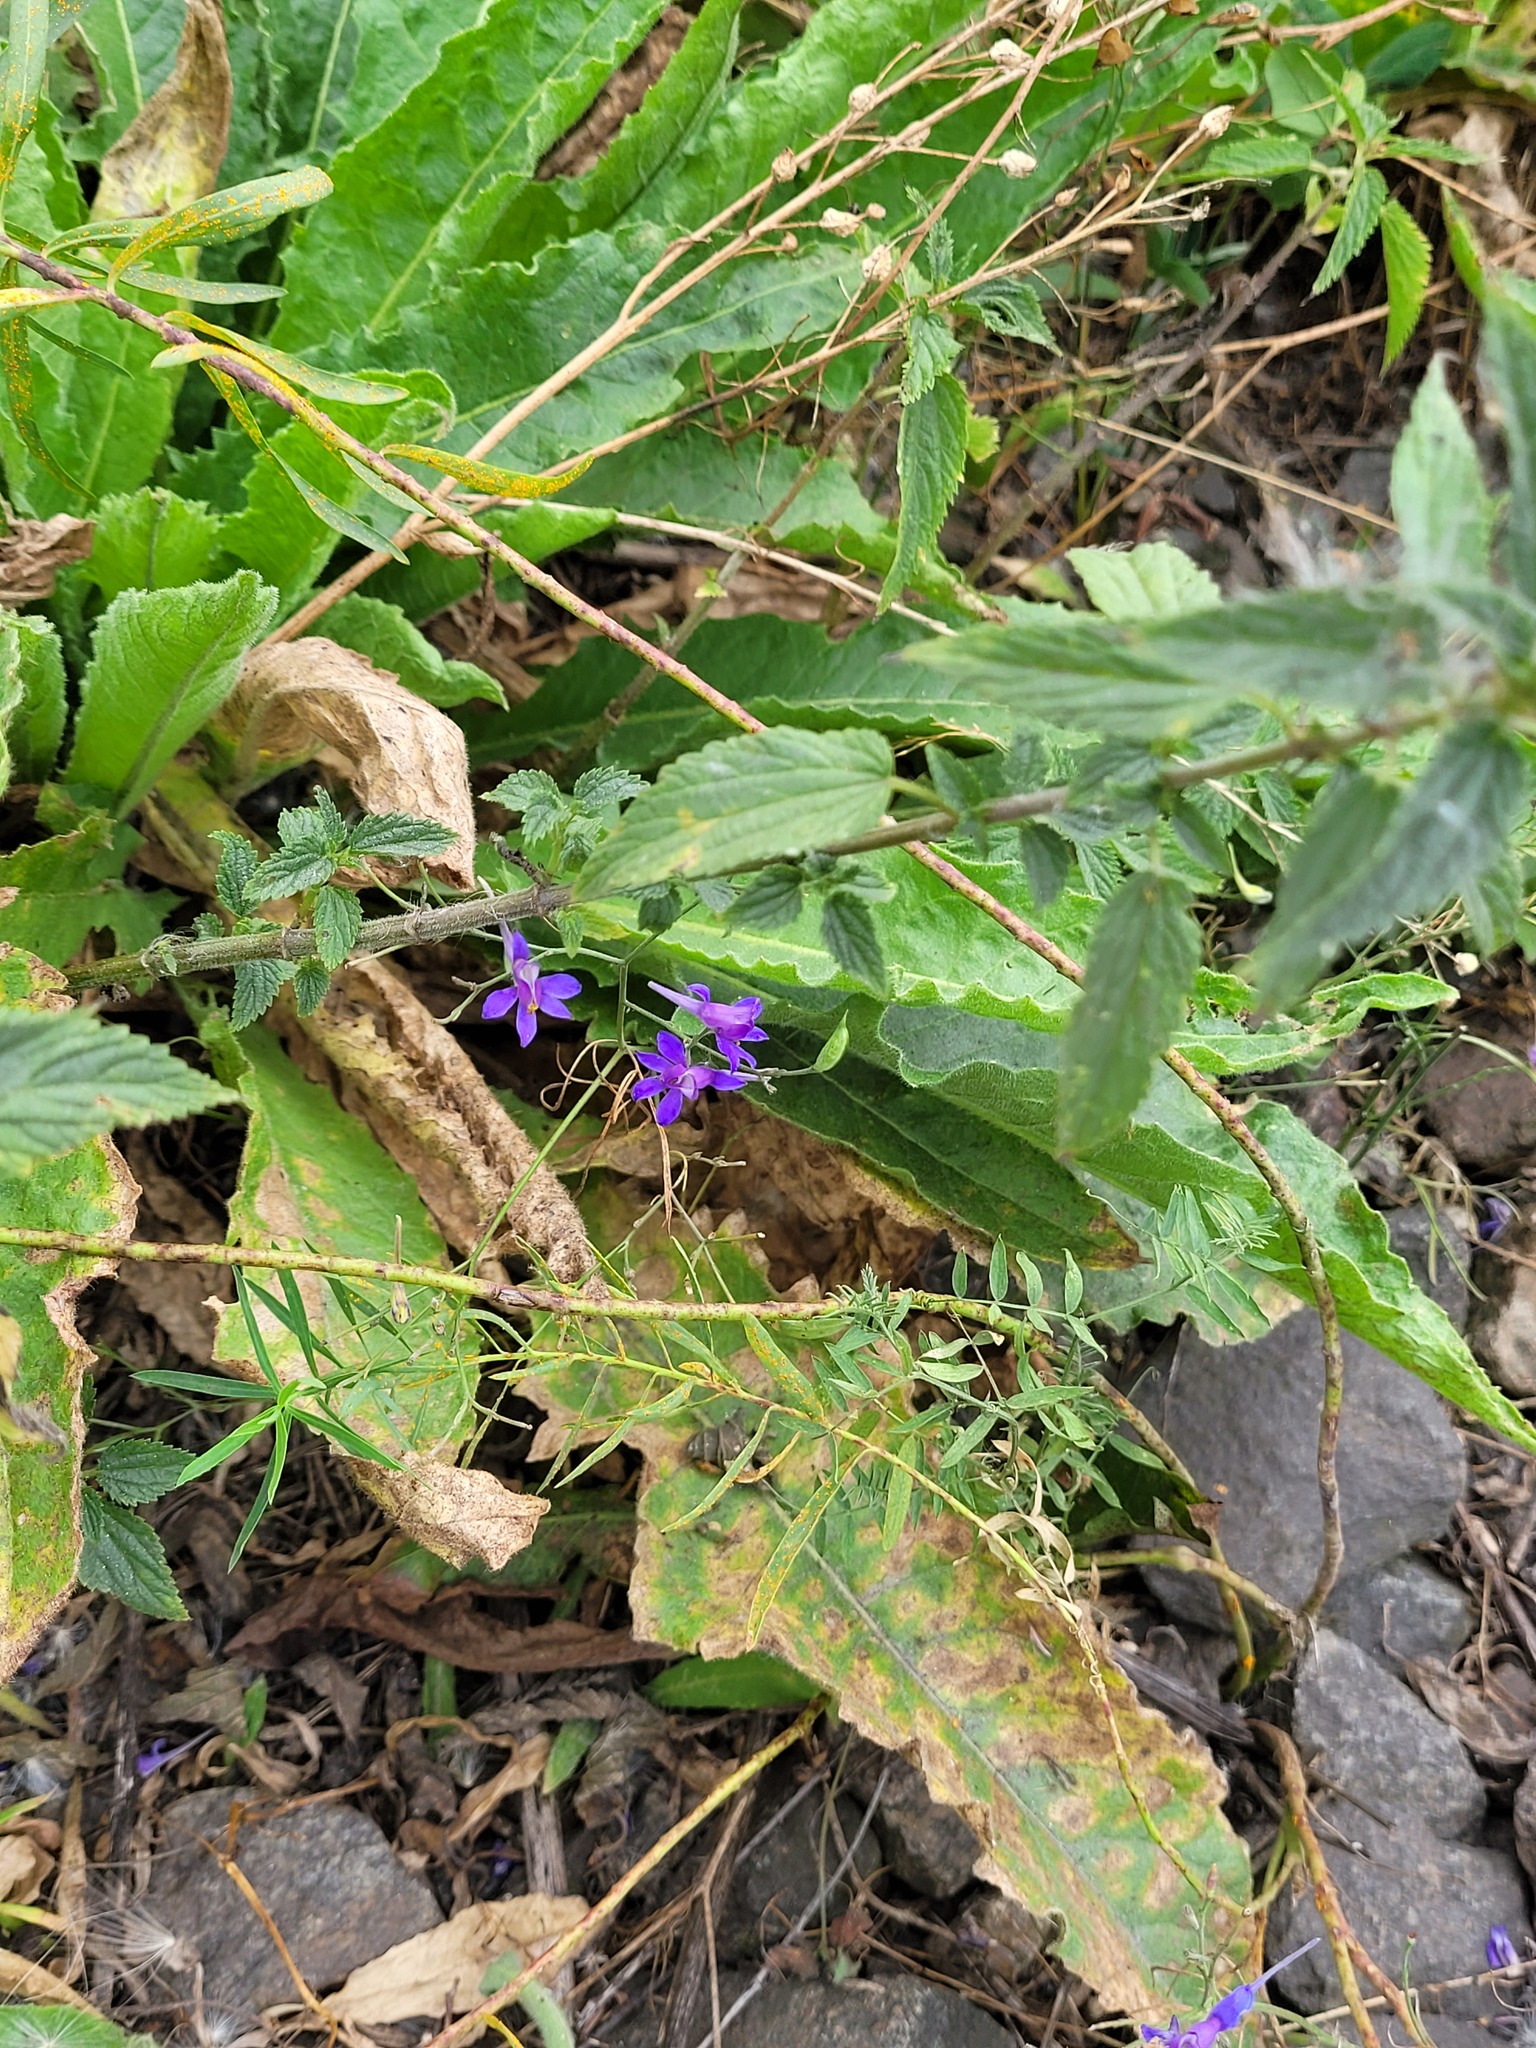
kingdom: Plantae
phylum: Tracheophyta
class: Magnoliopsida
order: Ranunculales
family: Ranunculaceae
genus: Delphinium
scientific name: Delphinium consolida
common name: Branching larkspur
